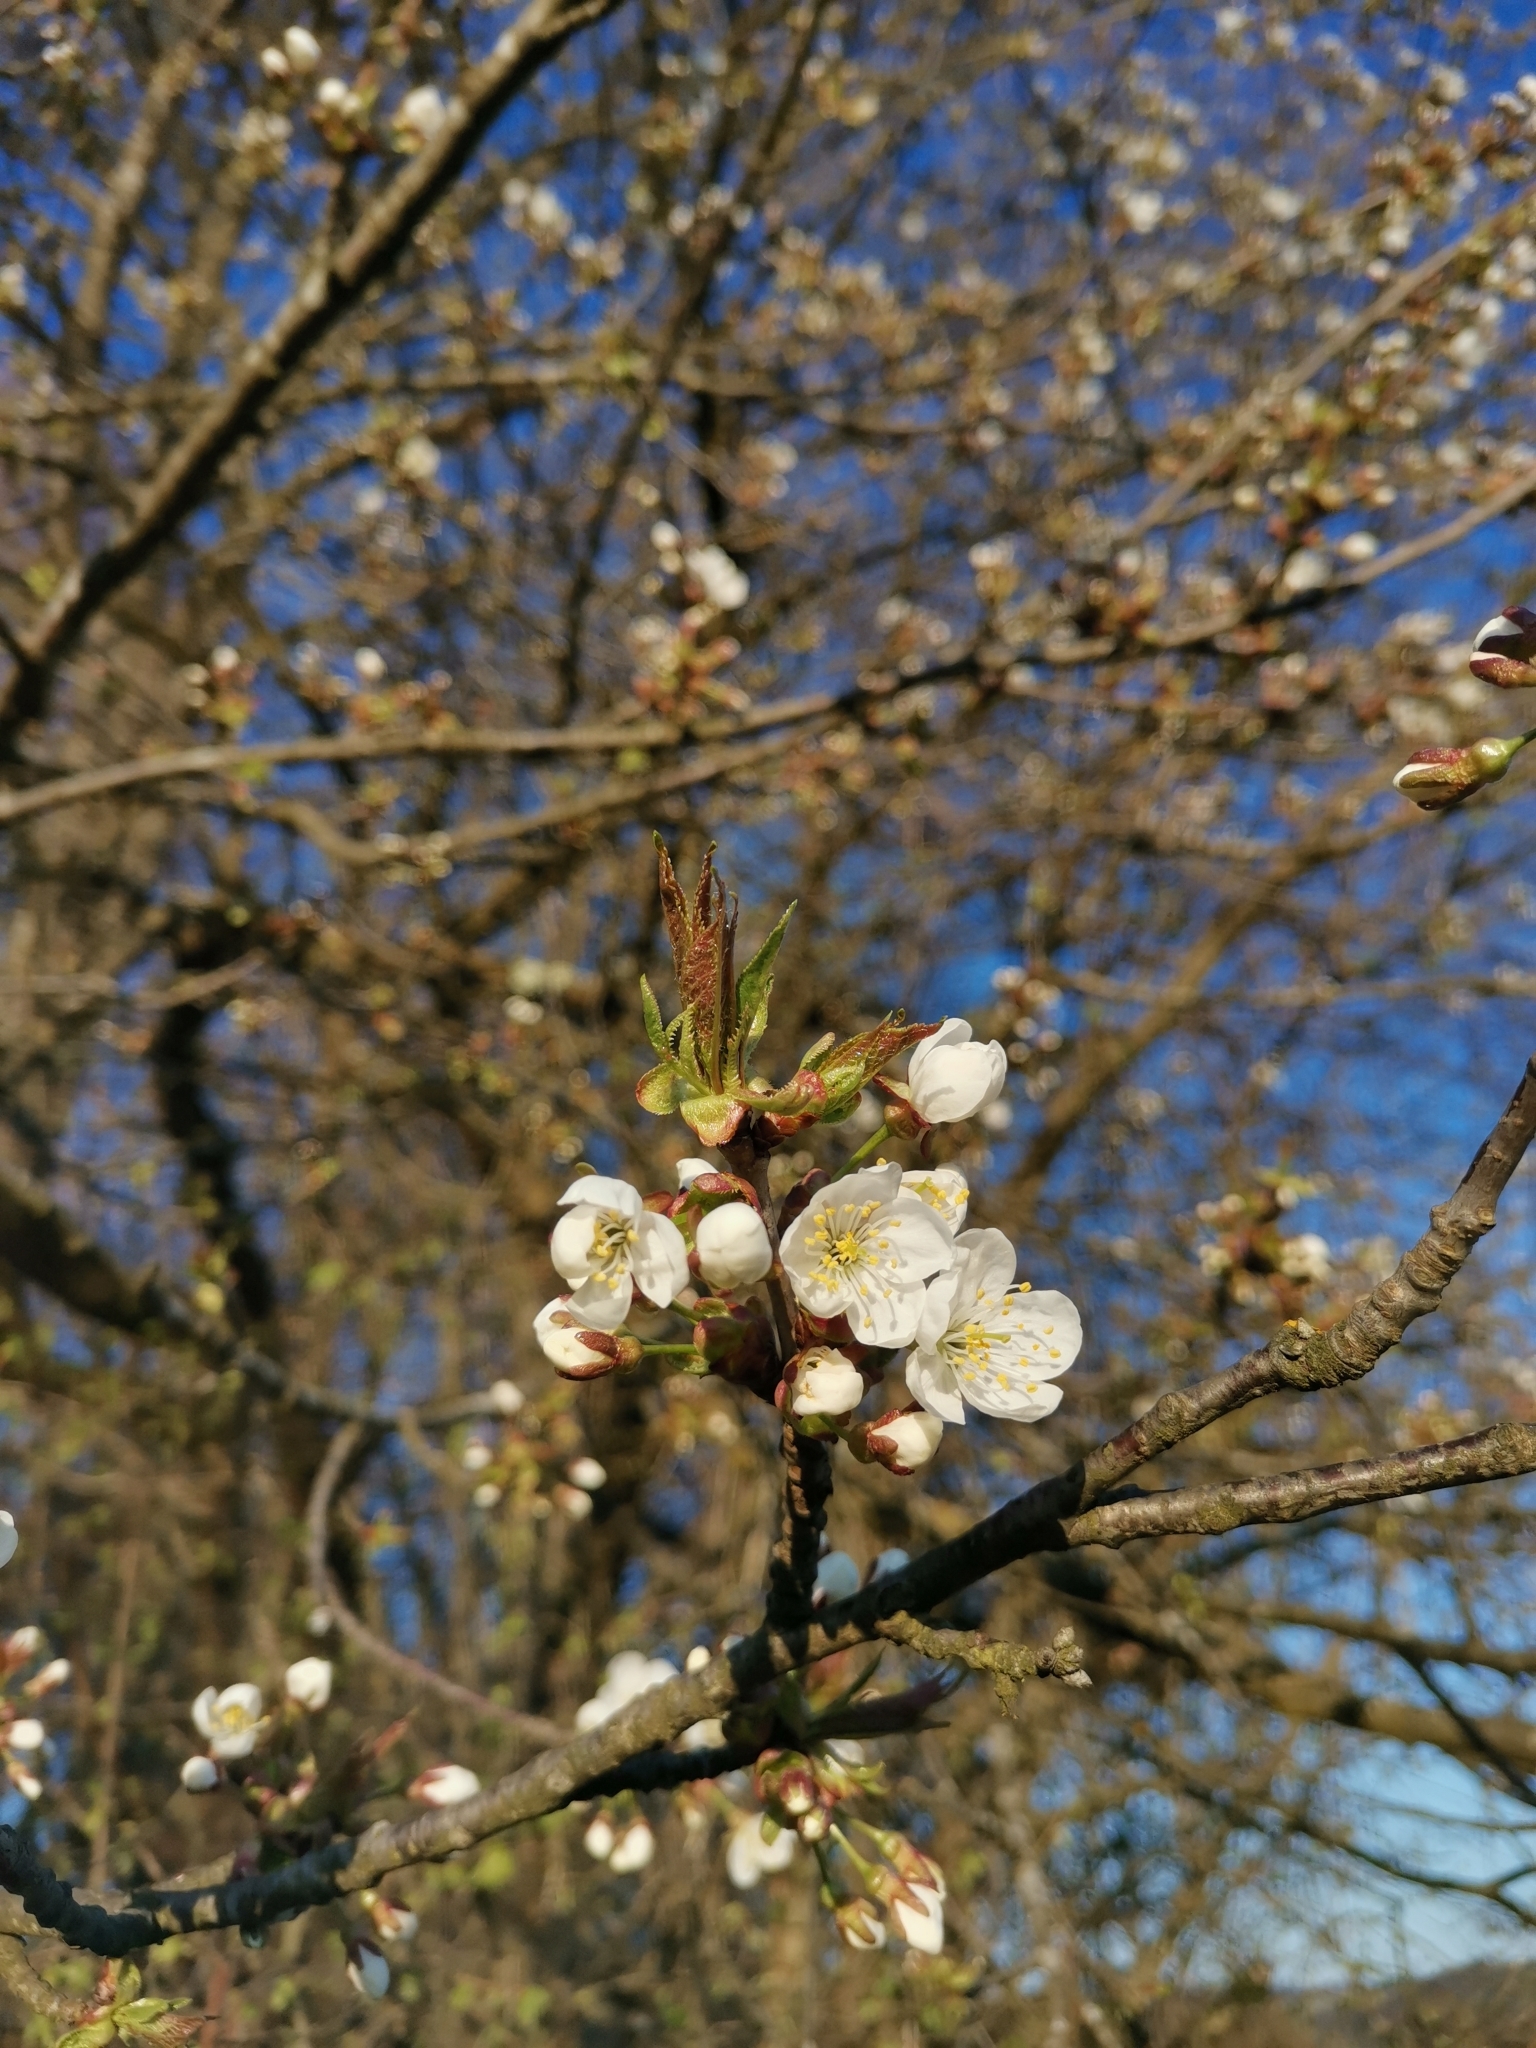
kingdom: Plantae
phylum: Tracheophyta
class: Magnoliopsida
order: Rosales
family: Rosaceae
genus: Prunus
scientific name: Prunus avium
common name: Sweet cherry
